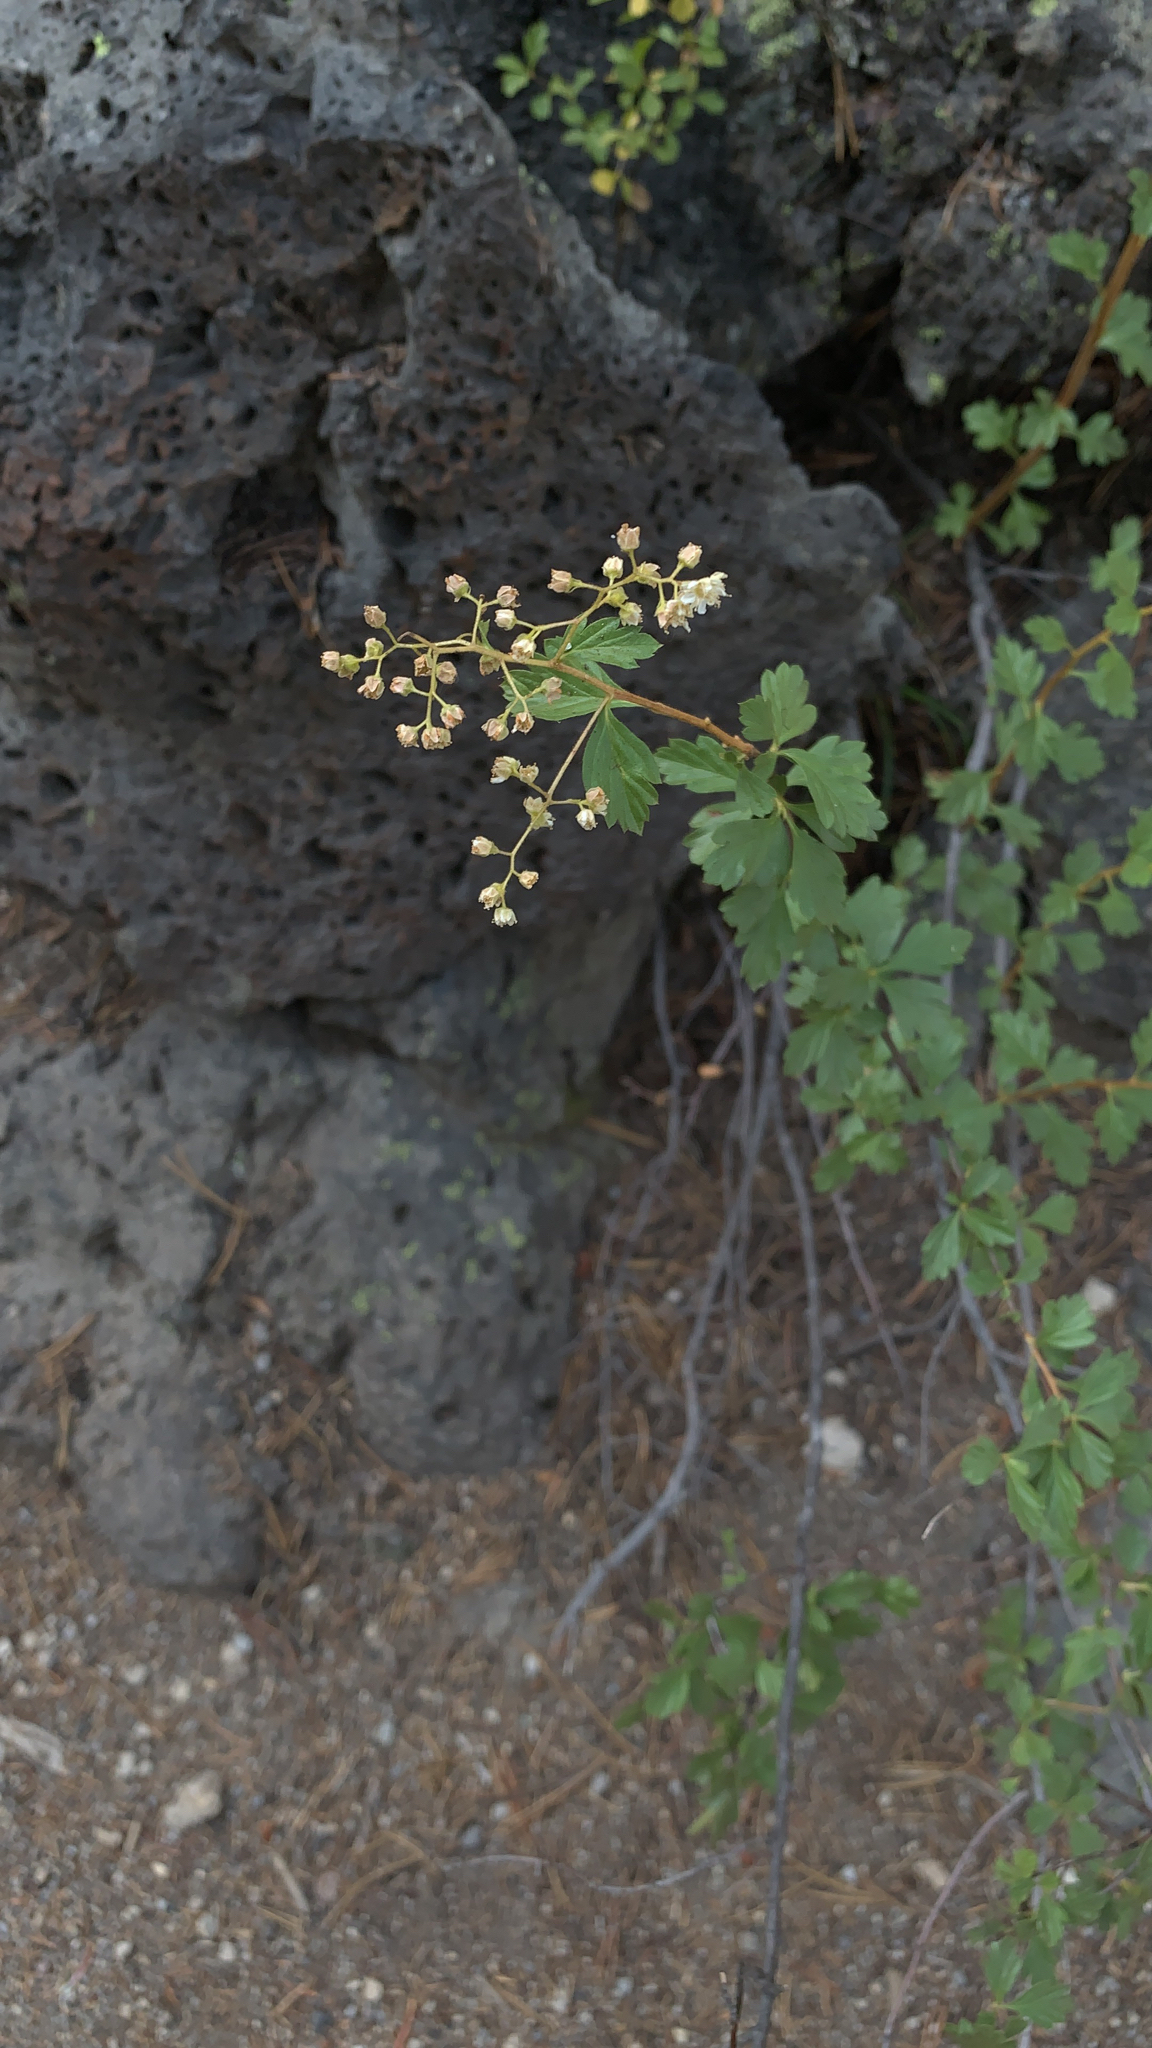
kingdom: Plantae
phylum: Tracheophyta
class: Magnoliopsida
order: Rosales
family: Rosaceae
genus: Holodiscus
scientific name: Holodiscus discolor
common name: Oceanspray
